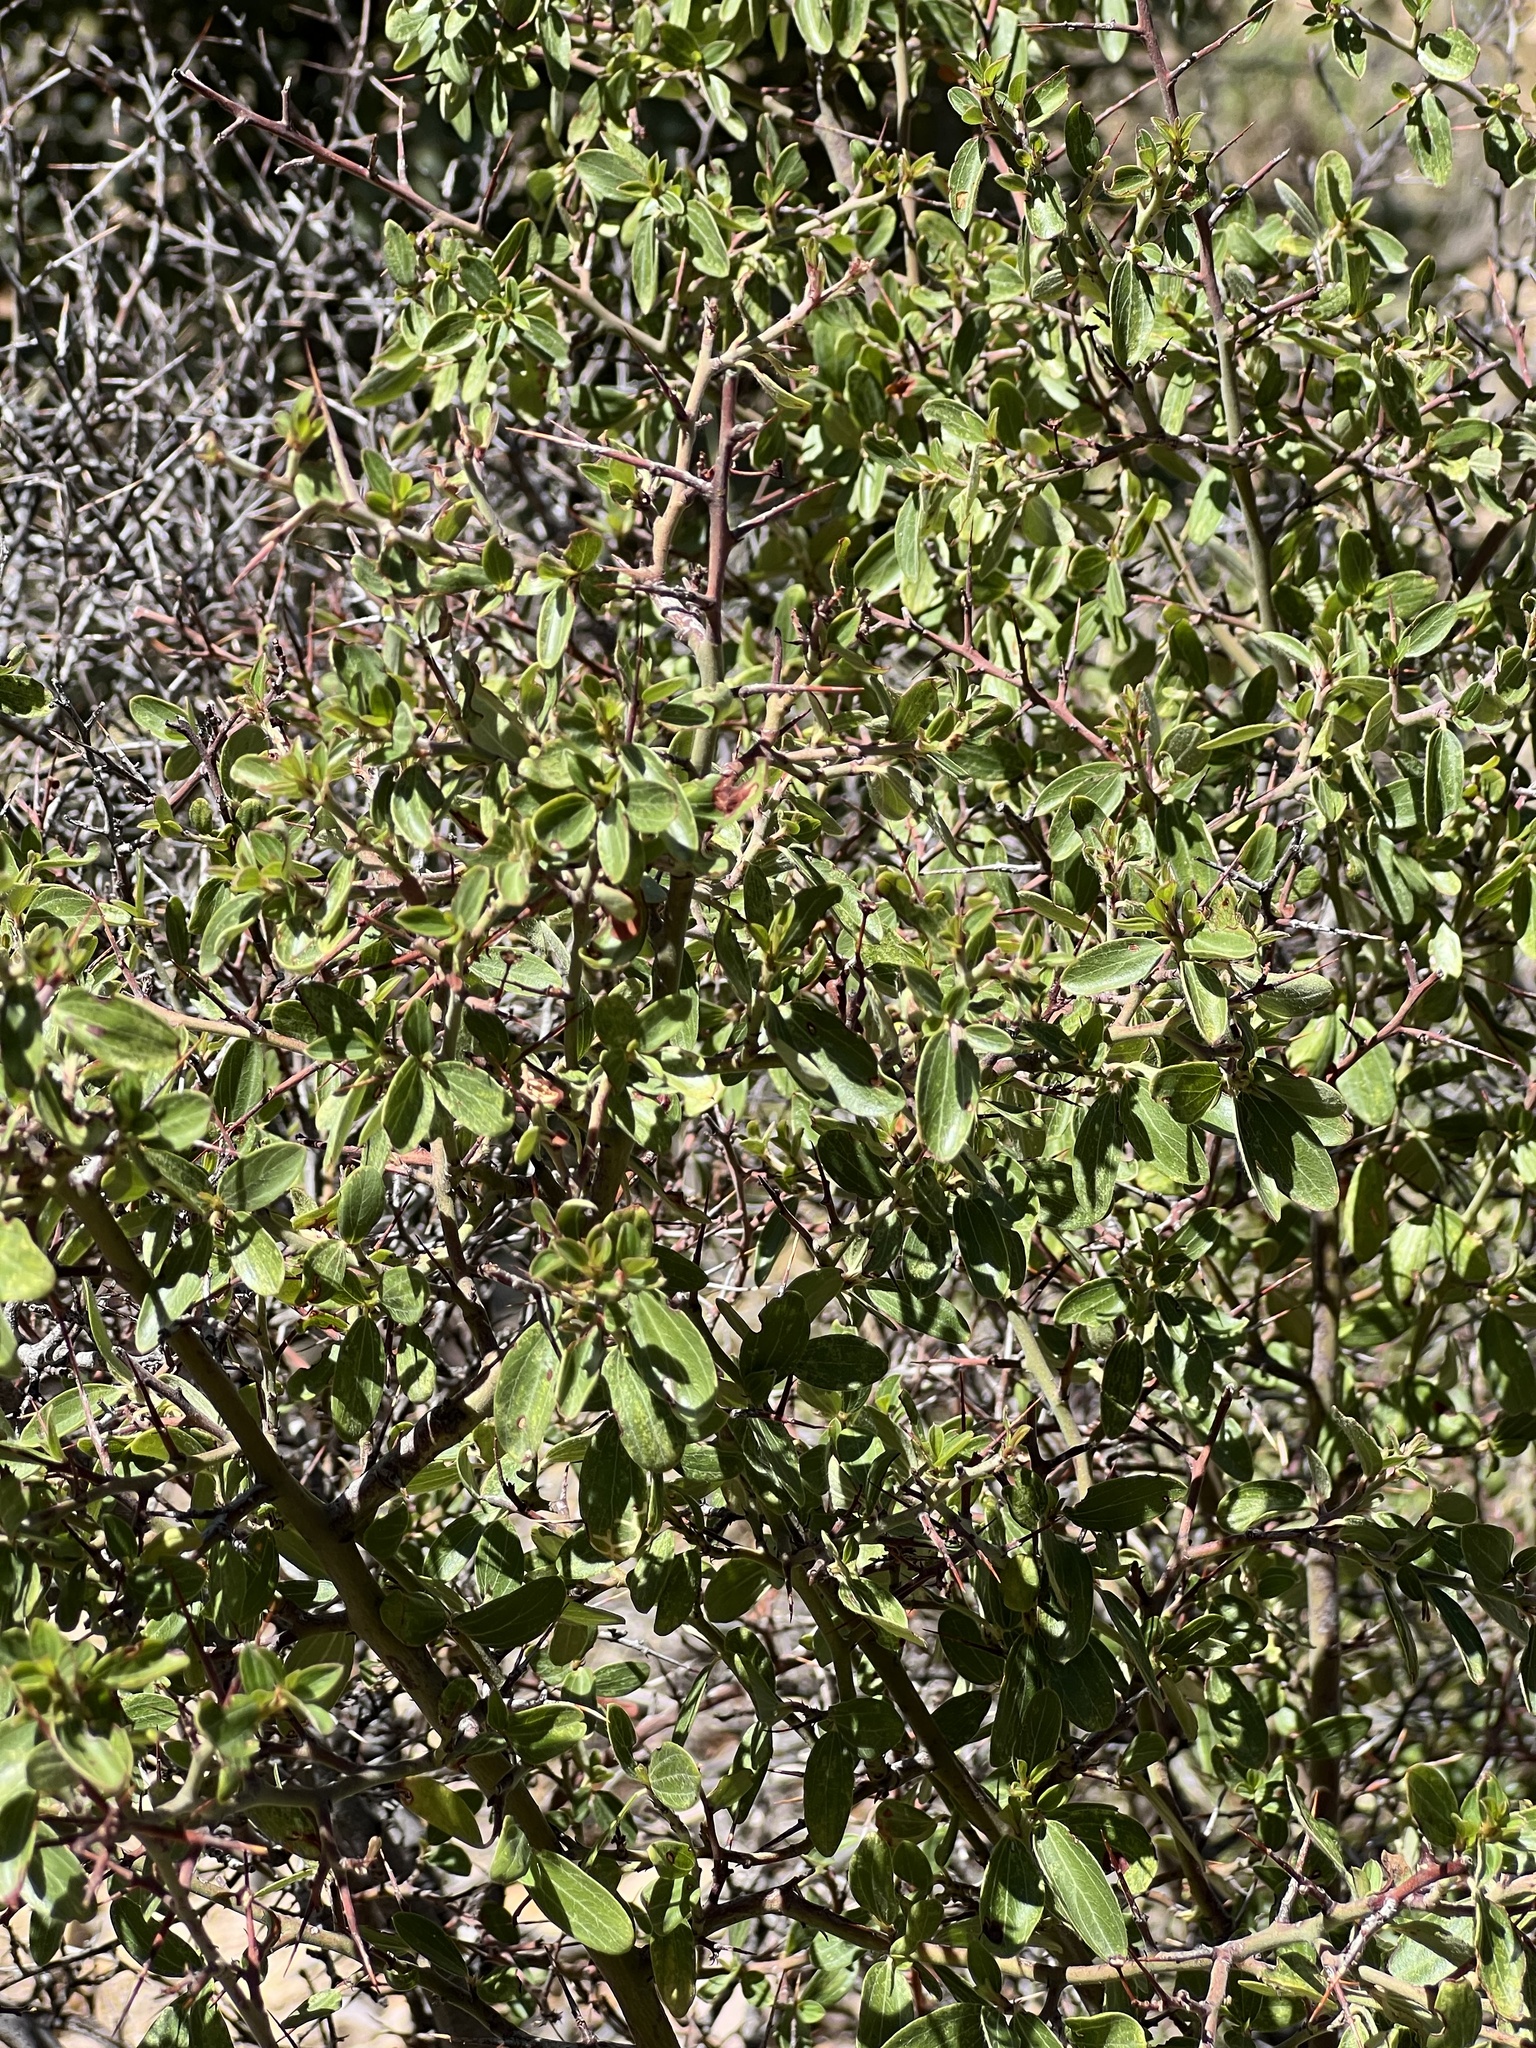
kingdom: Plantae
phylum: Tracheophyta
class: Magnoliopsida
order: Sapindales
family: Anacardiaceae
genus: Rhus
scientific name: Rhus virens
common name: Evergreen sumac
